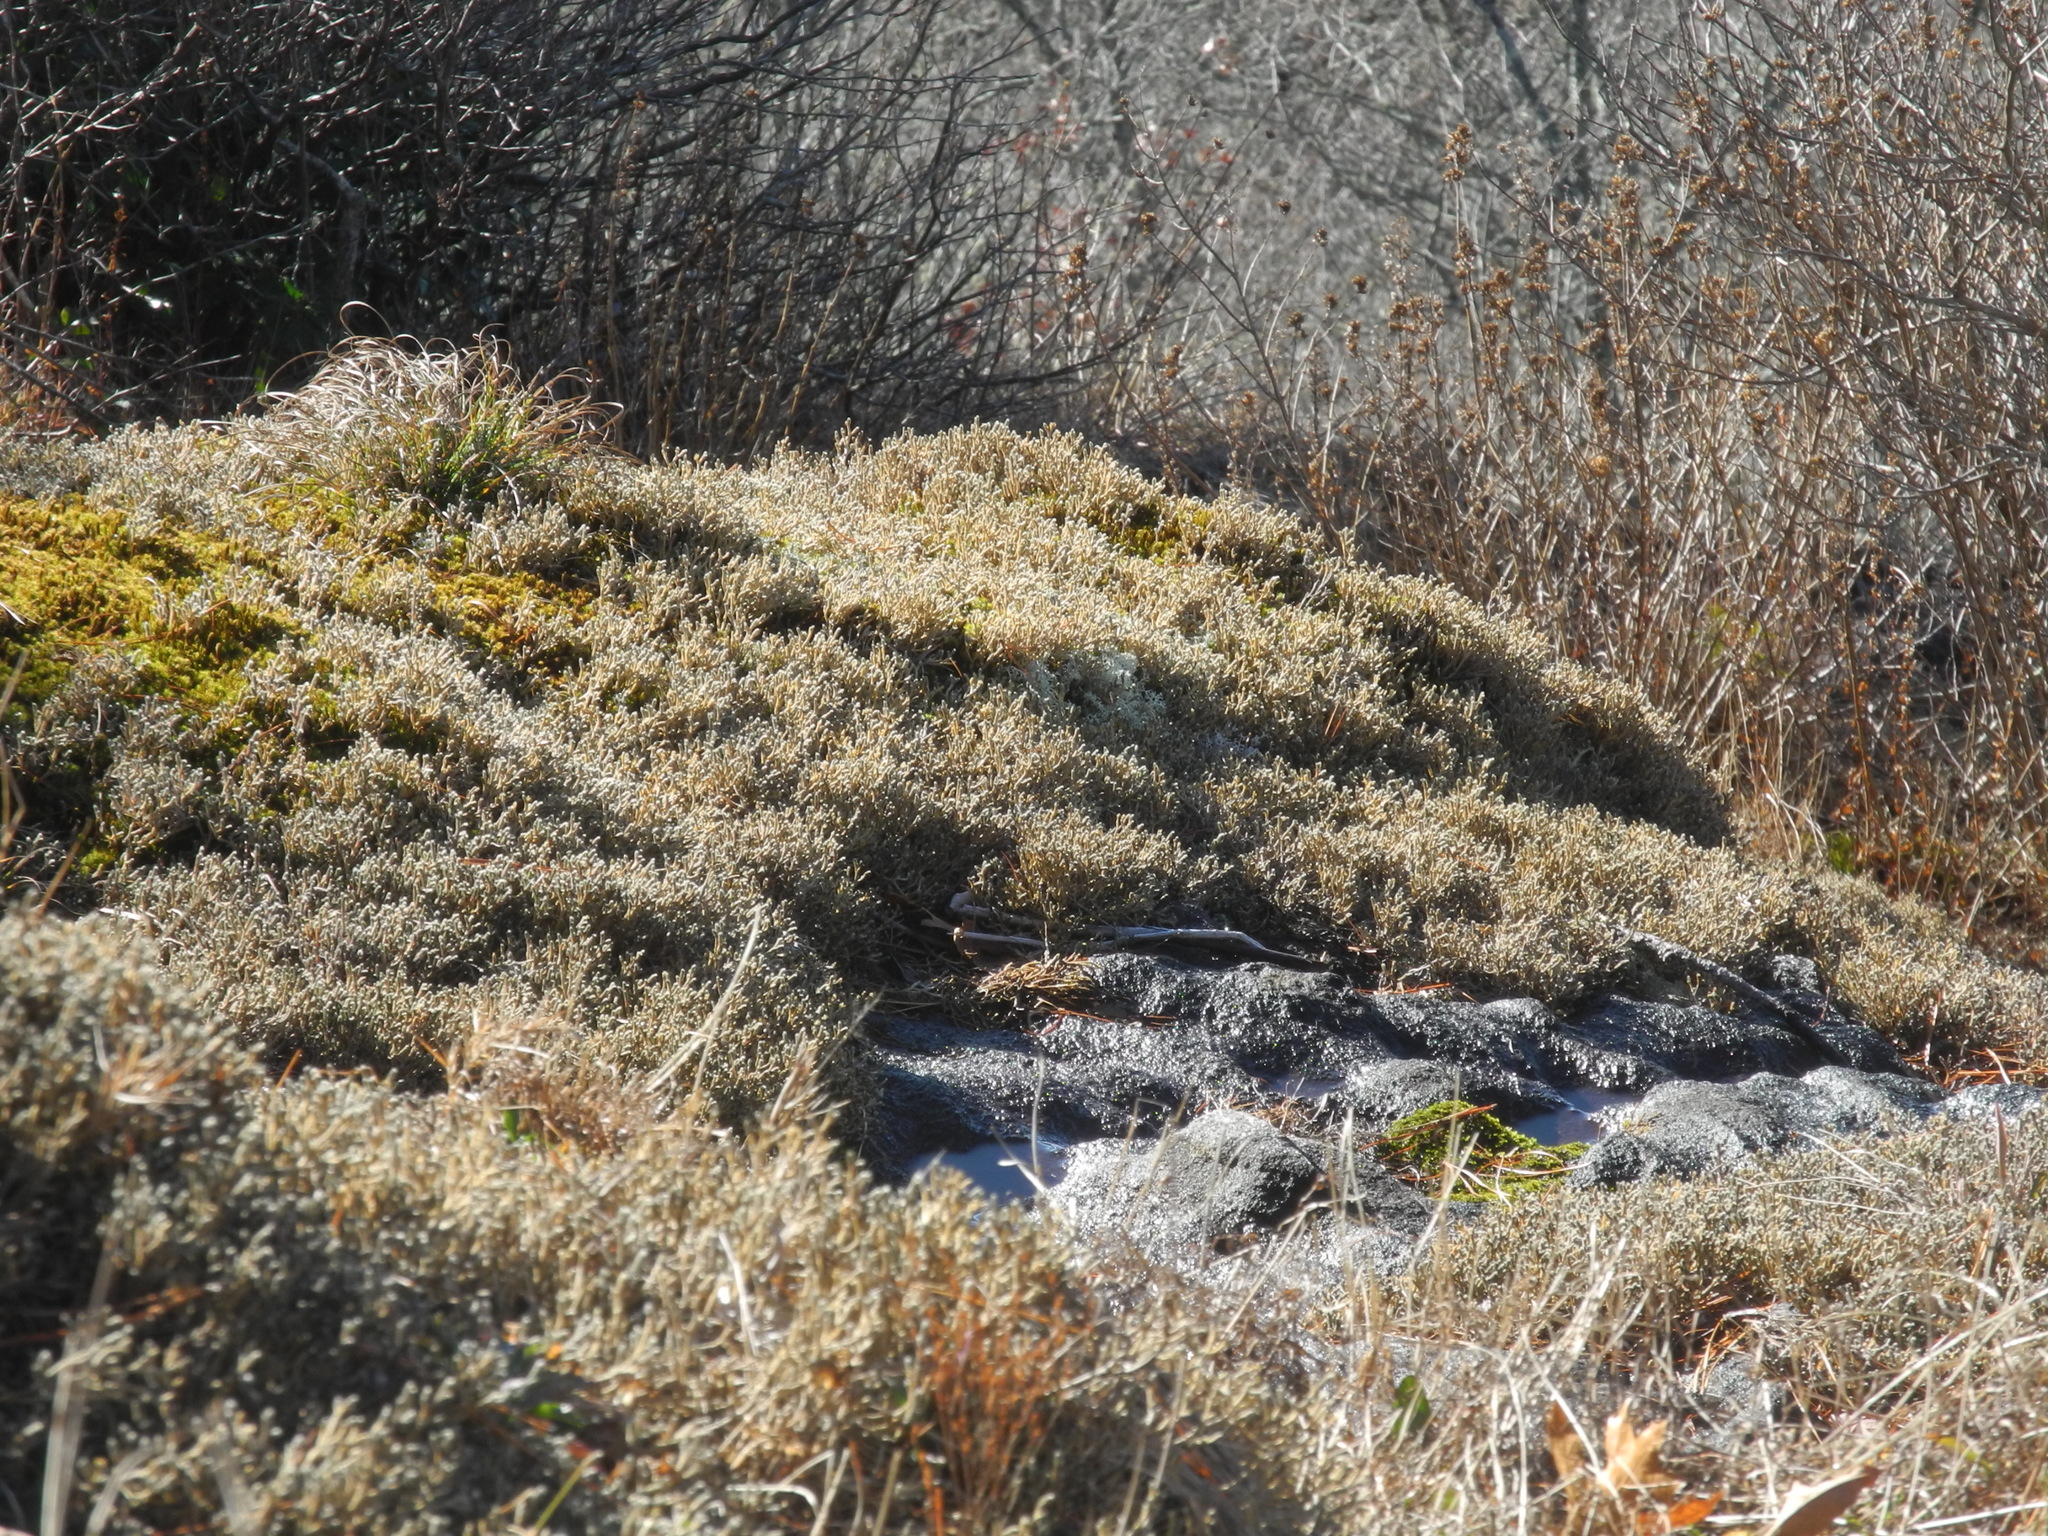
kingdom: Plantae
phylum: Tracheophyta
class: Lycopodiopsida
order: Selaginellales
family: Selaginellaceae
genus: Selaginella
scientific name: Selaginella tortipila
